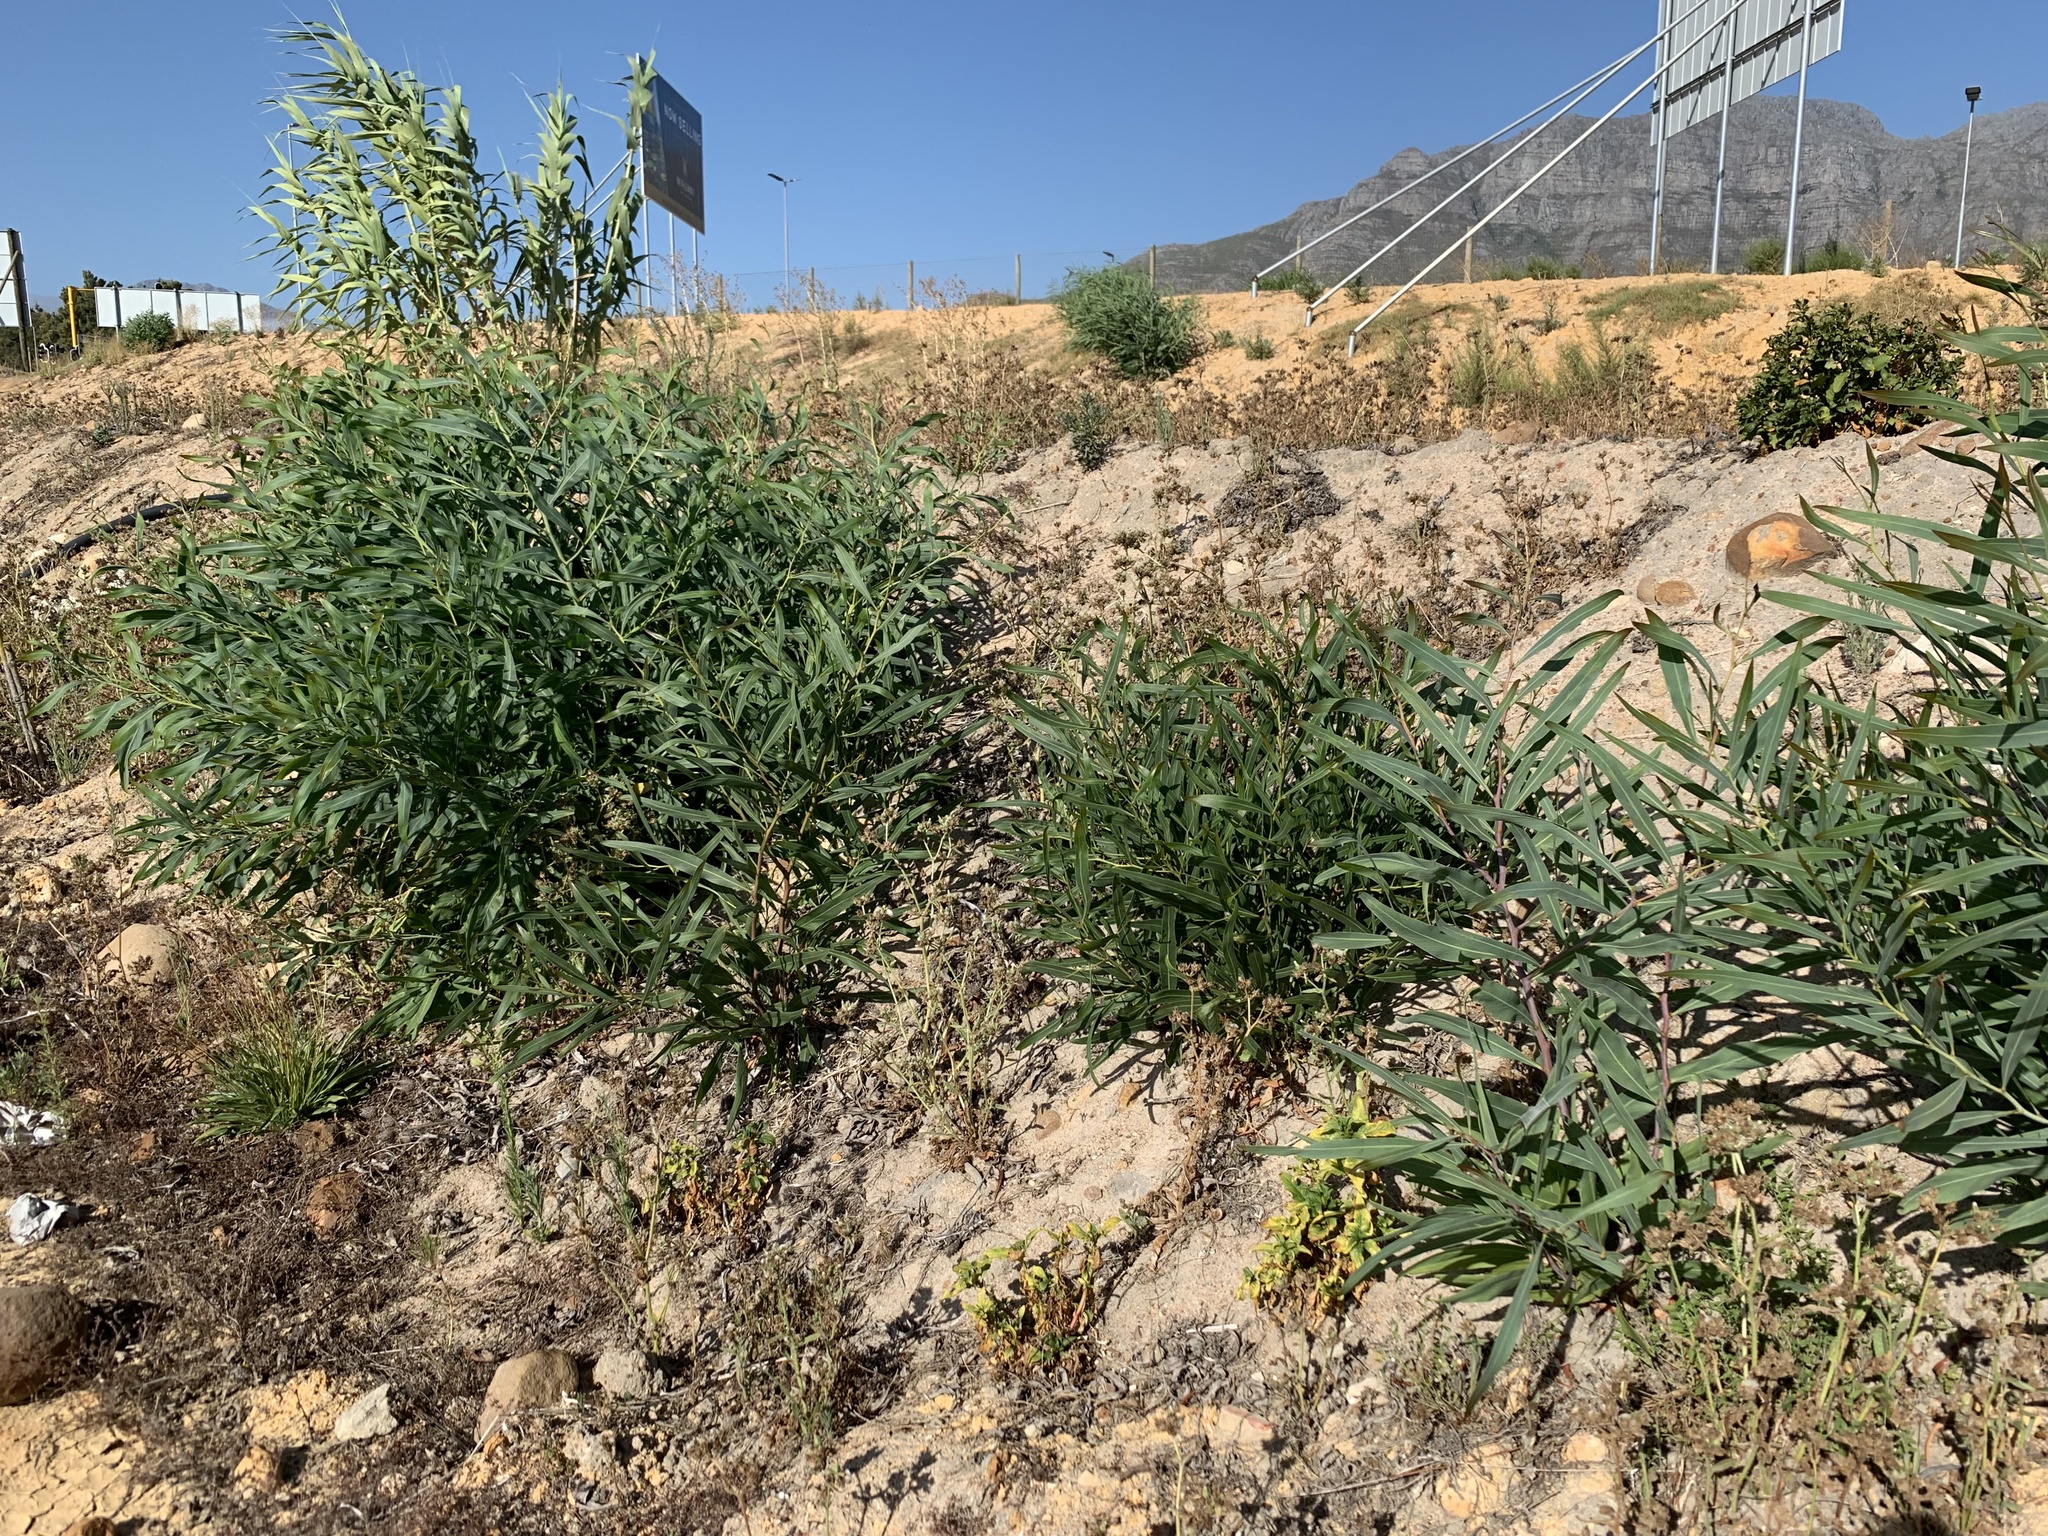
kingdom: Plantae
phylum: Tracheophyta
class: Magnoliopsida
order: Fabales
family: Fabaceae
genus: Acacia
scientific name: Acacia saligna
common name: Orange wattle
